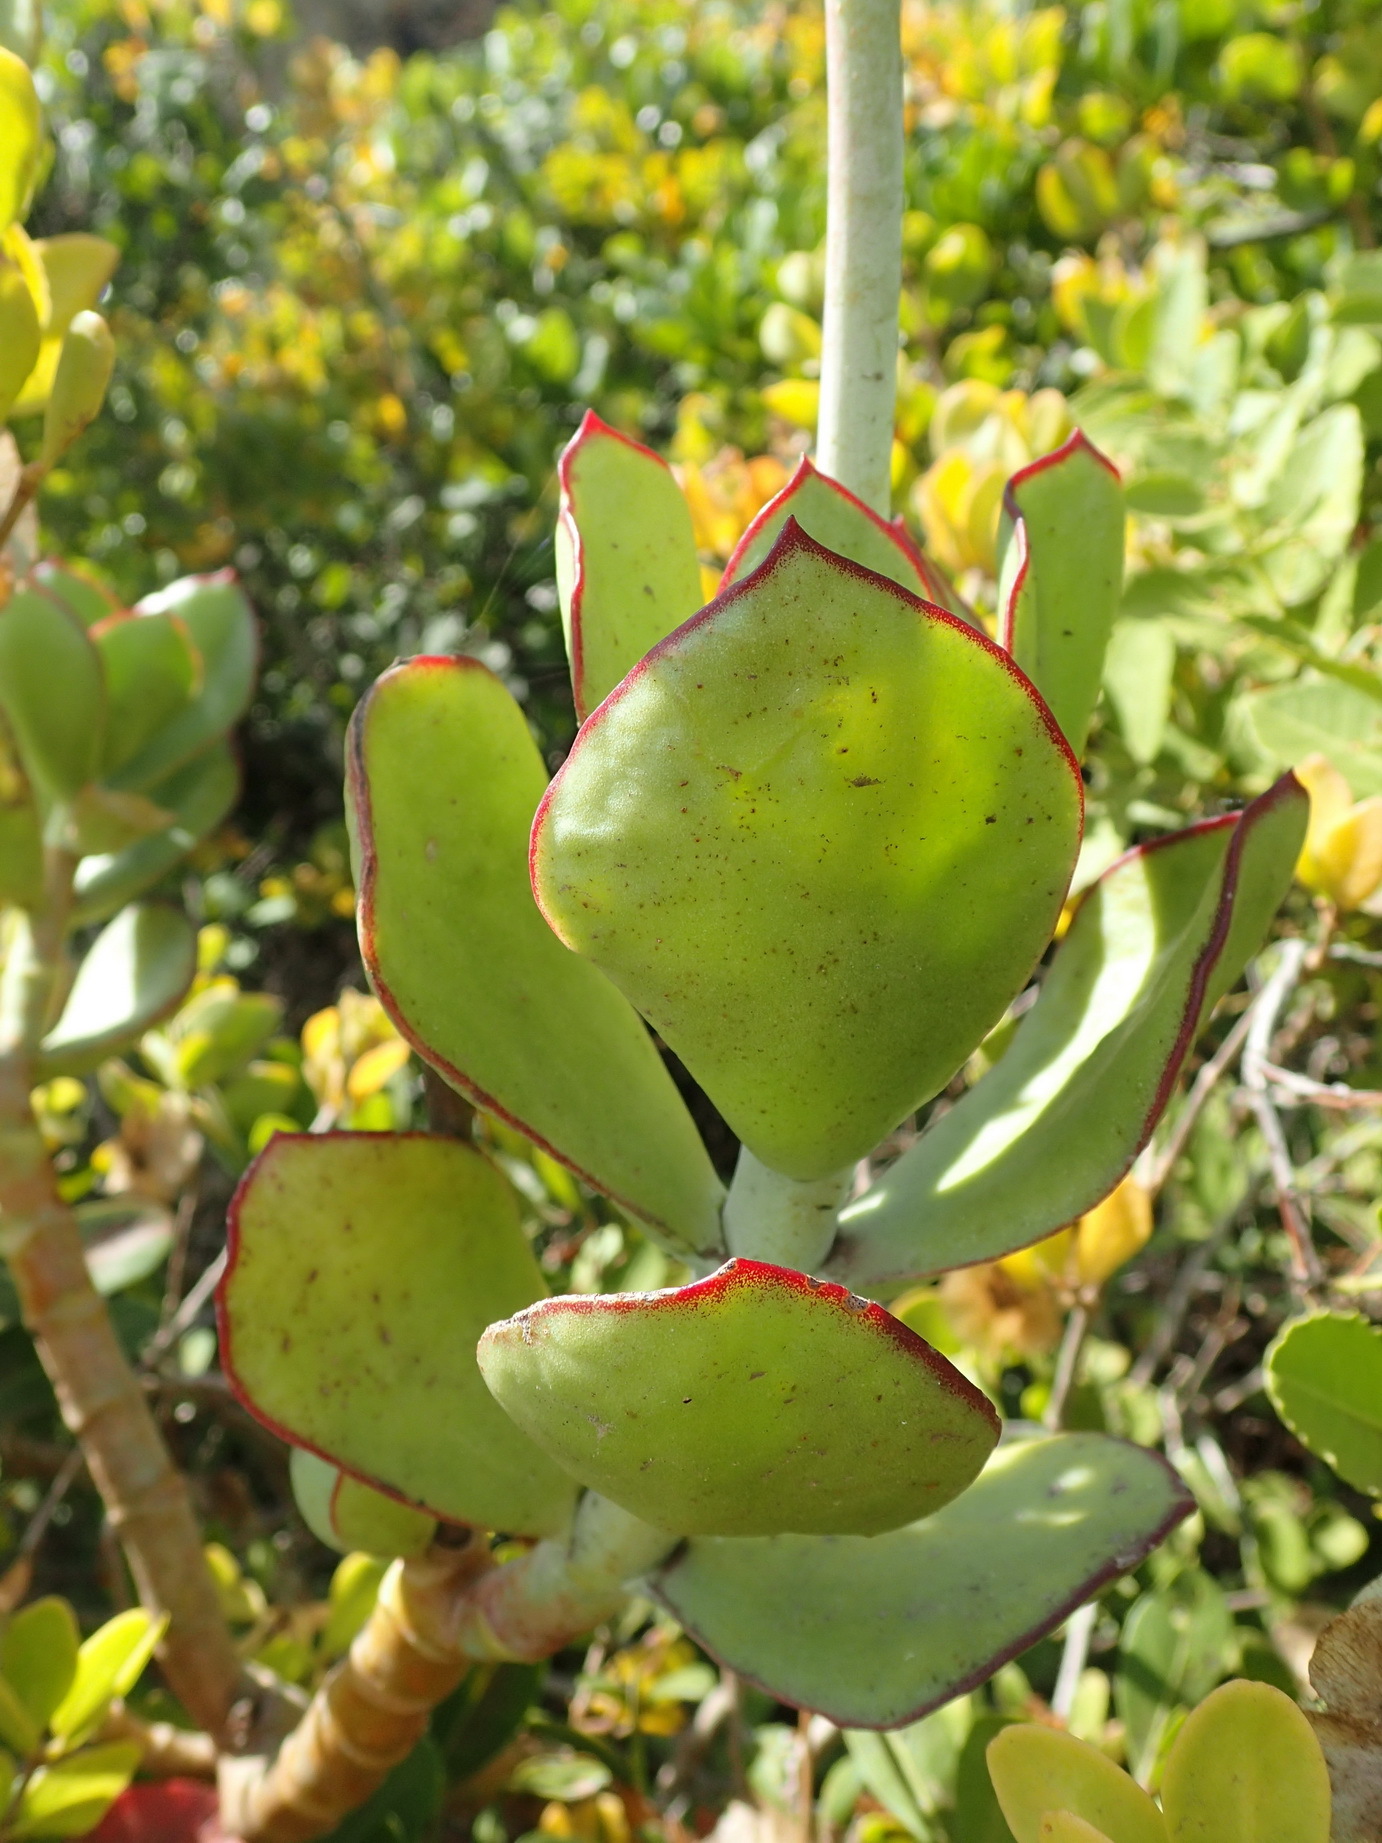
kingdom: Plantae
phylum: Tracheophyta
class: Magnoliopsida
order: Saxifragales
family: Crassulaceae
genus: Cotyledon
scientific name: Cotyledon orbiculata
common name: Pig's ear
